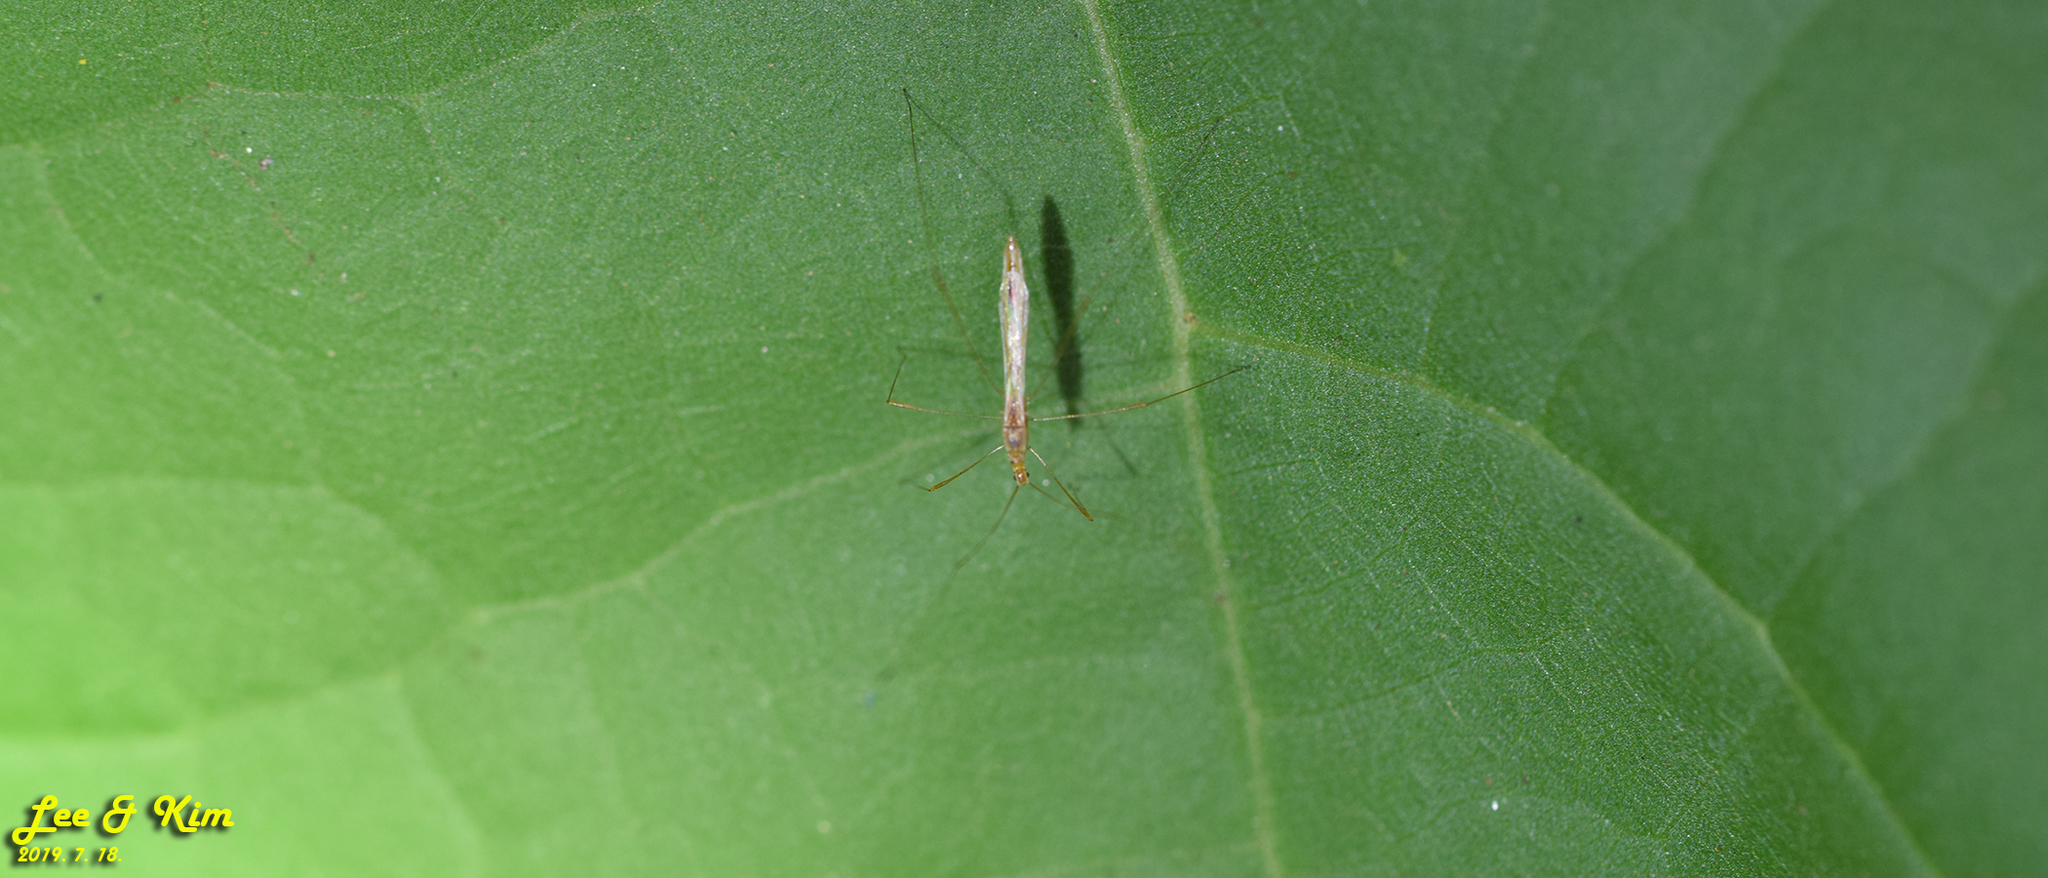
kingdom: Animalia
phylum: Arthropoda
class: Insecta
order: Hemiptera
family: Berytidae
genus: Yemma
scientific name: Yemma exilis
